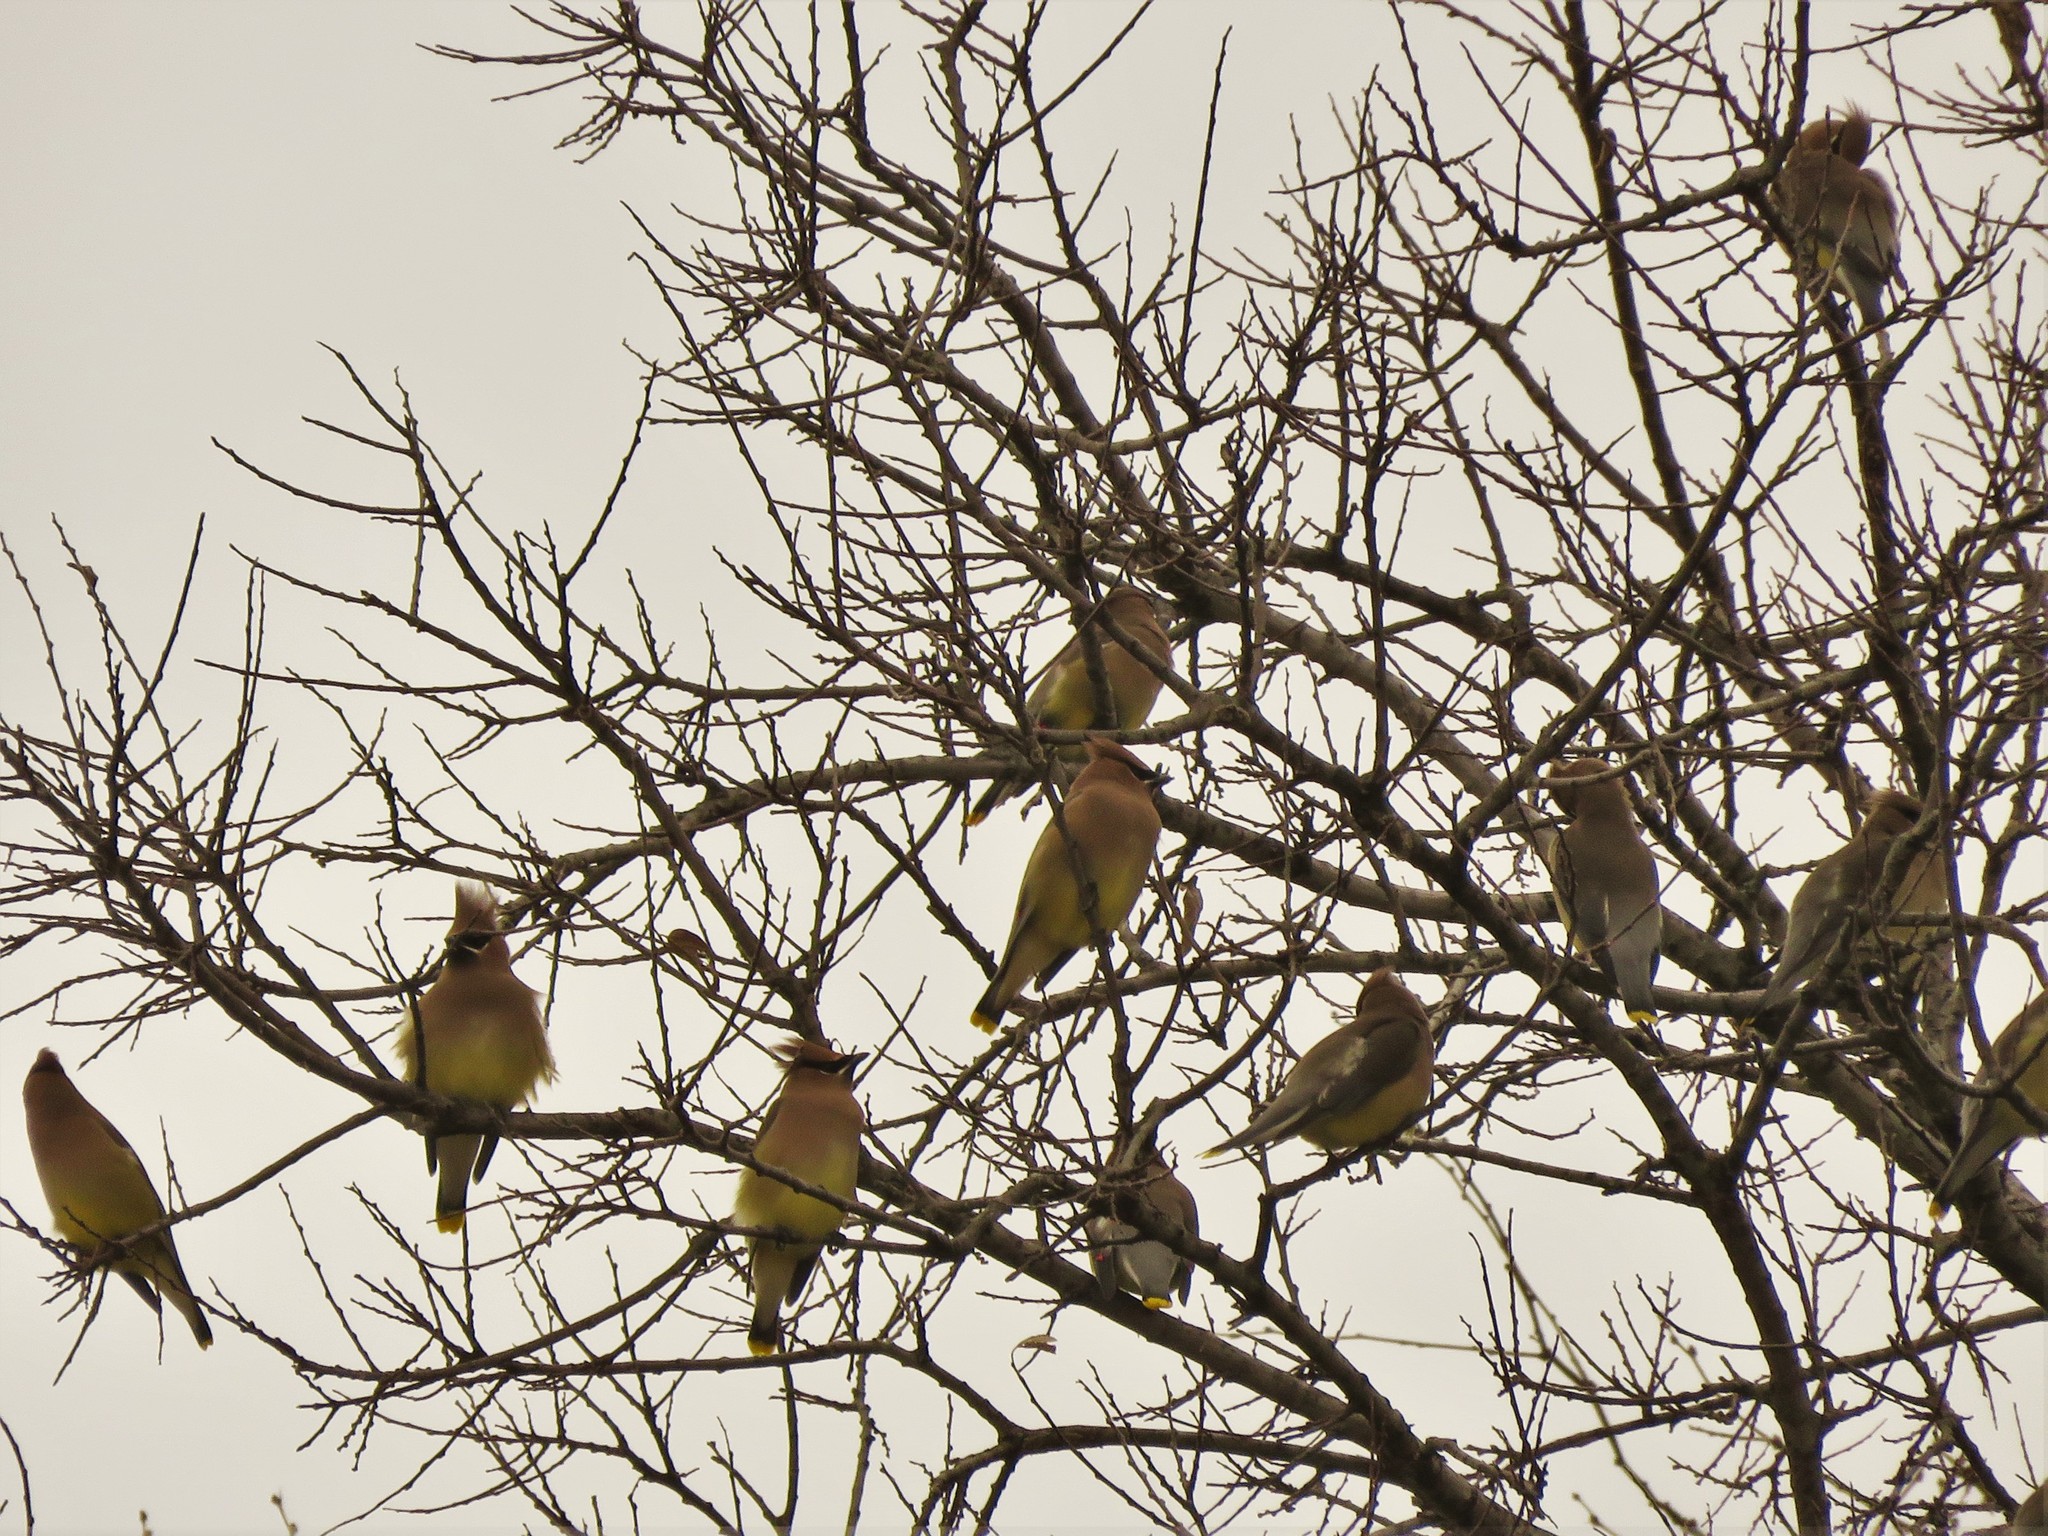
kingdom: Animalia
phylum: Chordata
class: Aves
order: Passeriformes
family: Bombycillidae
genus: Bombycilla
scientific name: Bombycilla cedrorum
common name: Cedar waxwing
